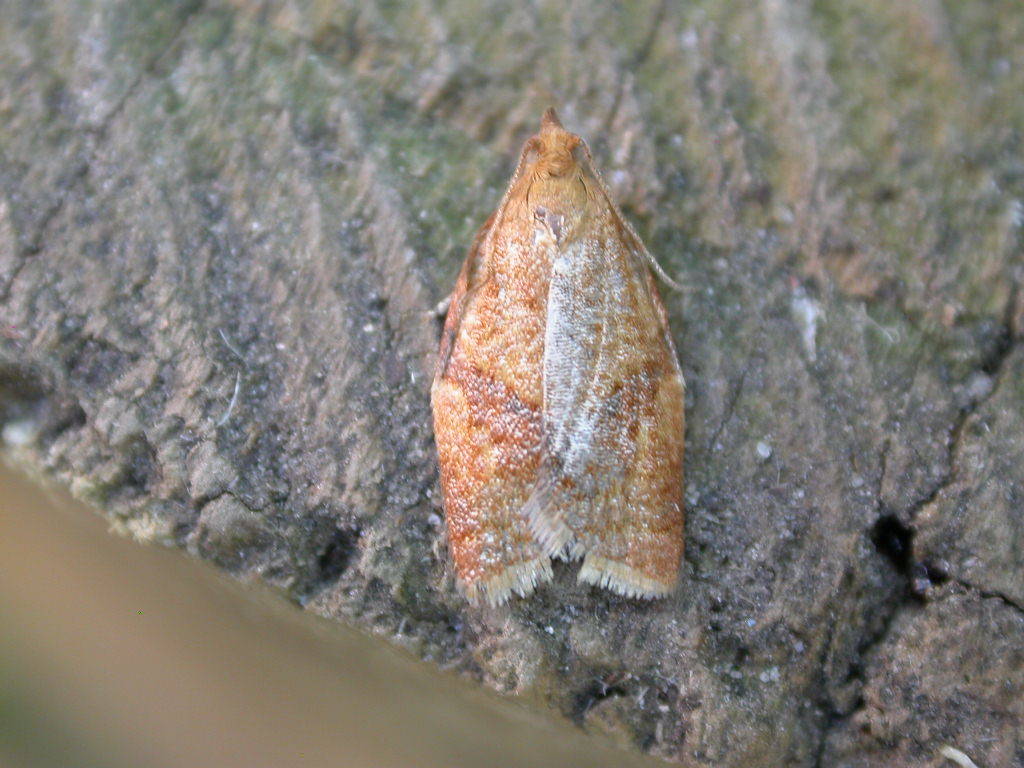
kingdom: Animalia
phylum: Arthropoda
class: Insecta
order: Lepidoptera
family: Tortricidae
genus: Clepsis
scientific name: Clepsis consimilana
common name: Privet tortrix
